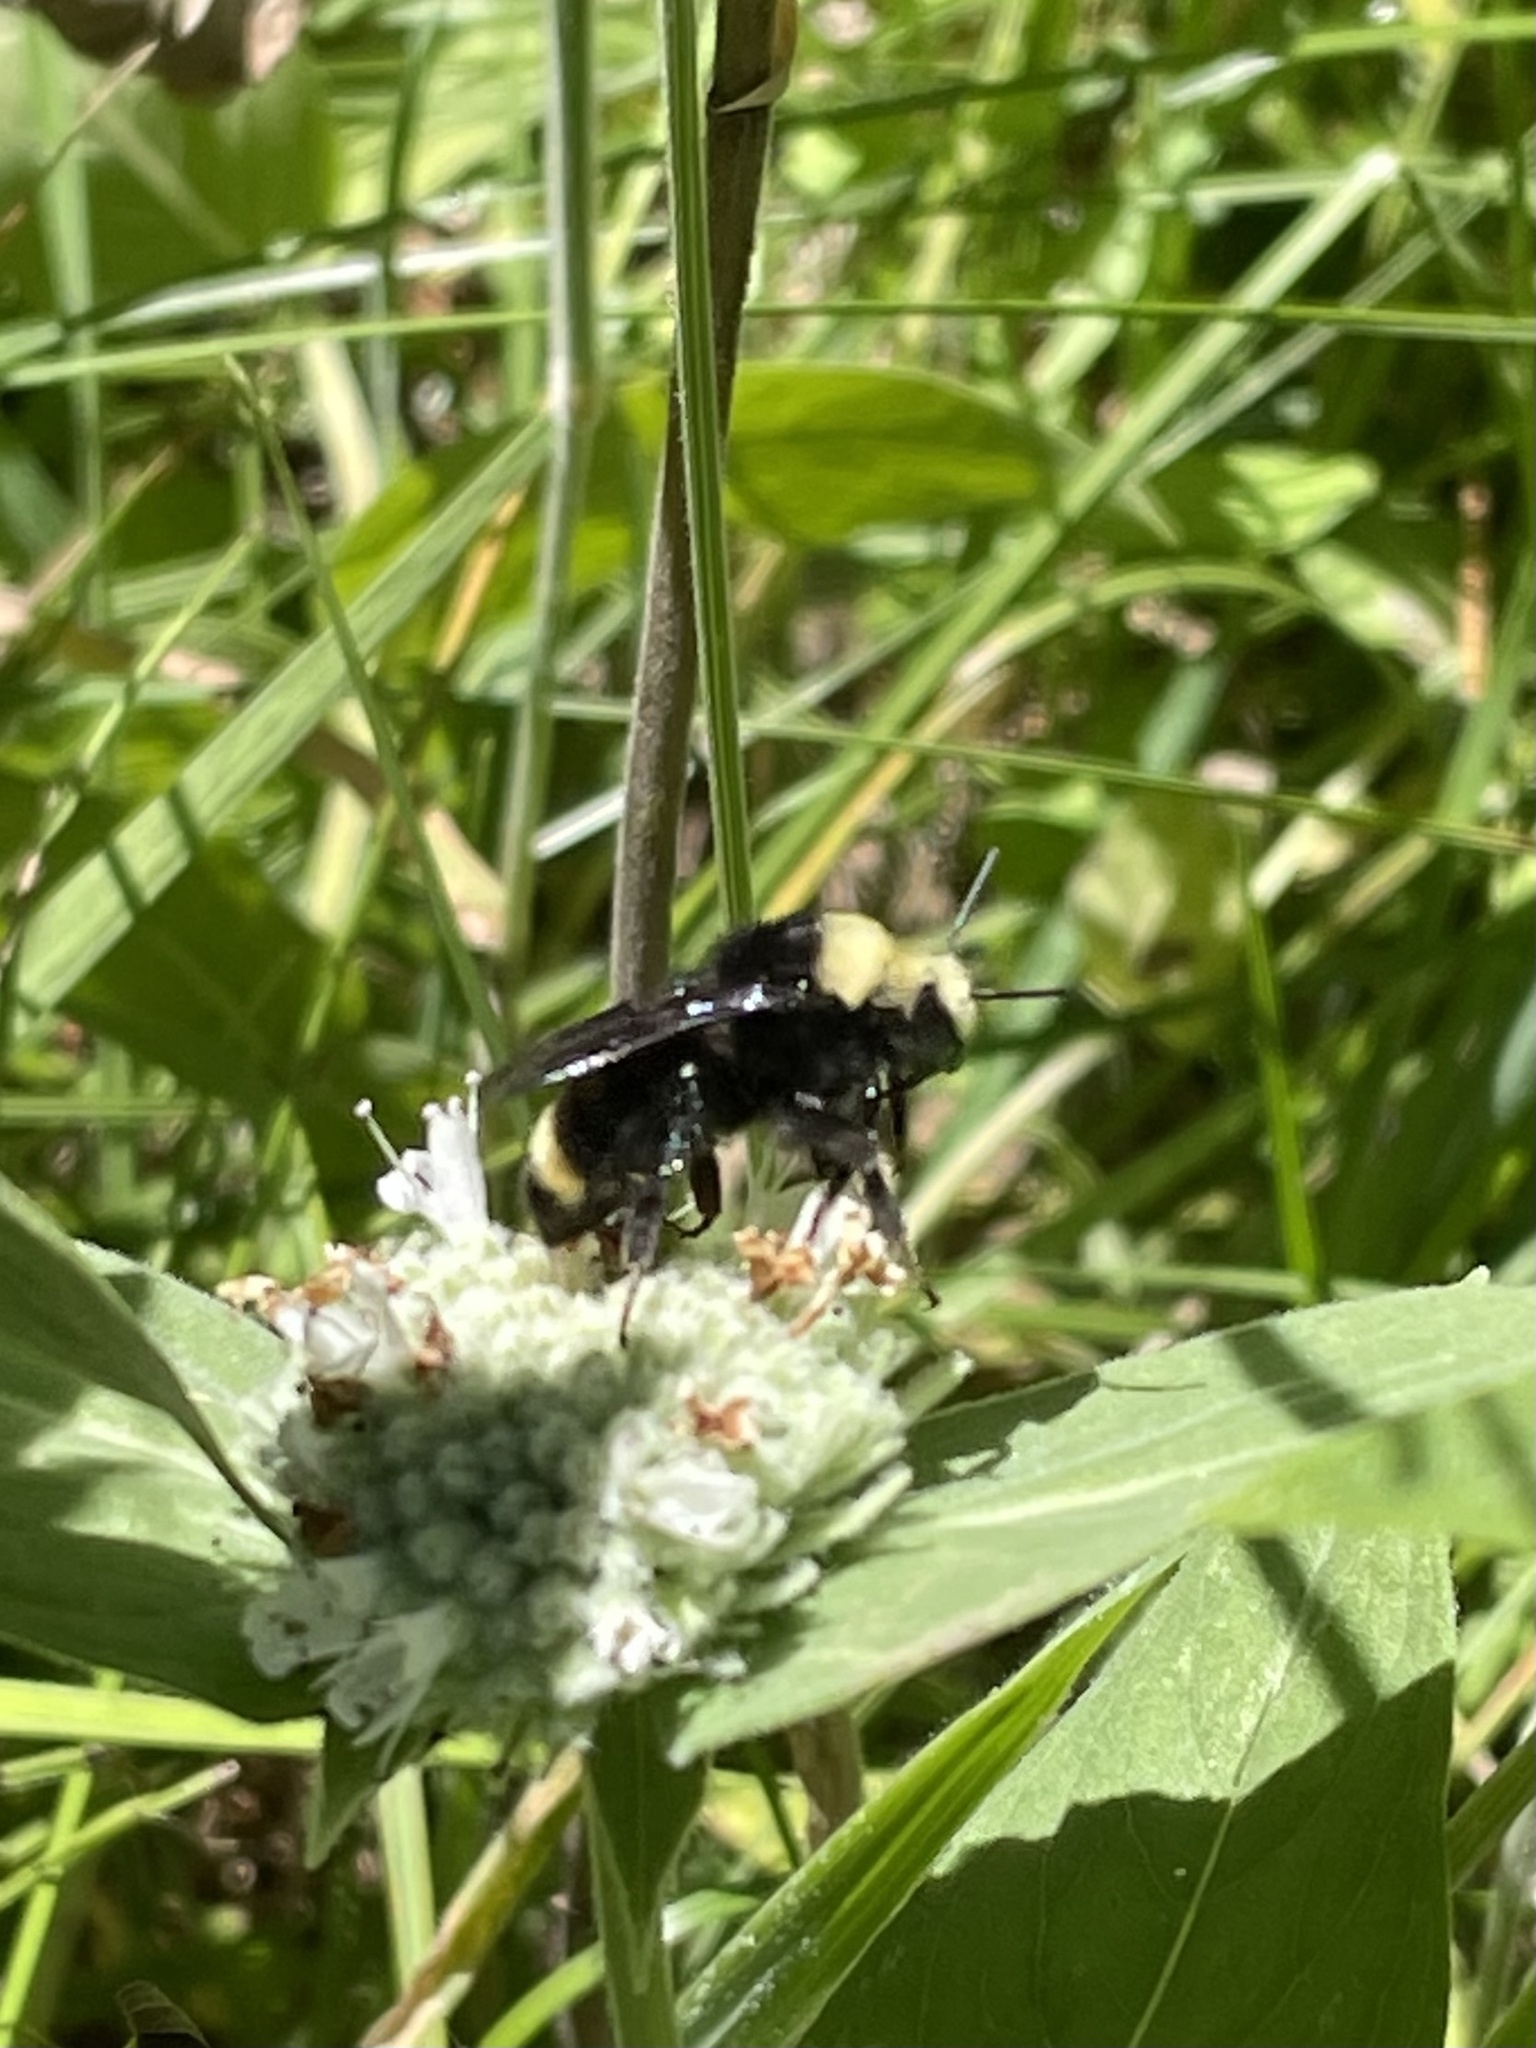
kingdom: Animalia
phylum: Arthropoda
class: Insecta
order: Hymenoptera
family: Apidae
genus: Bombus
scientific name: Bombus vosnesenskii
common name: Vosnesensky bumble bee
